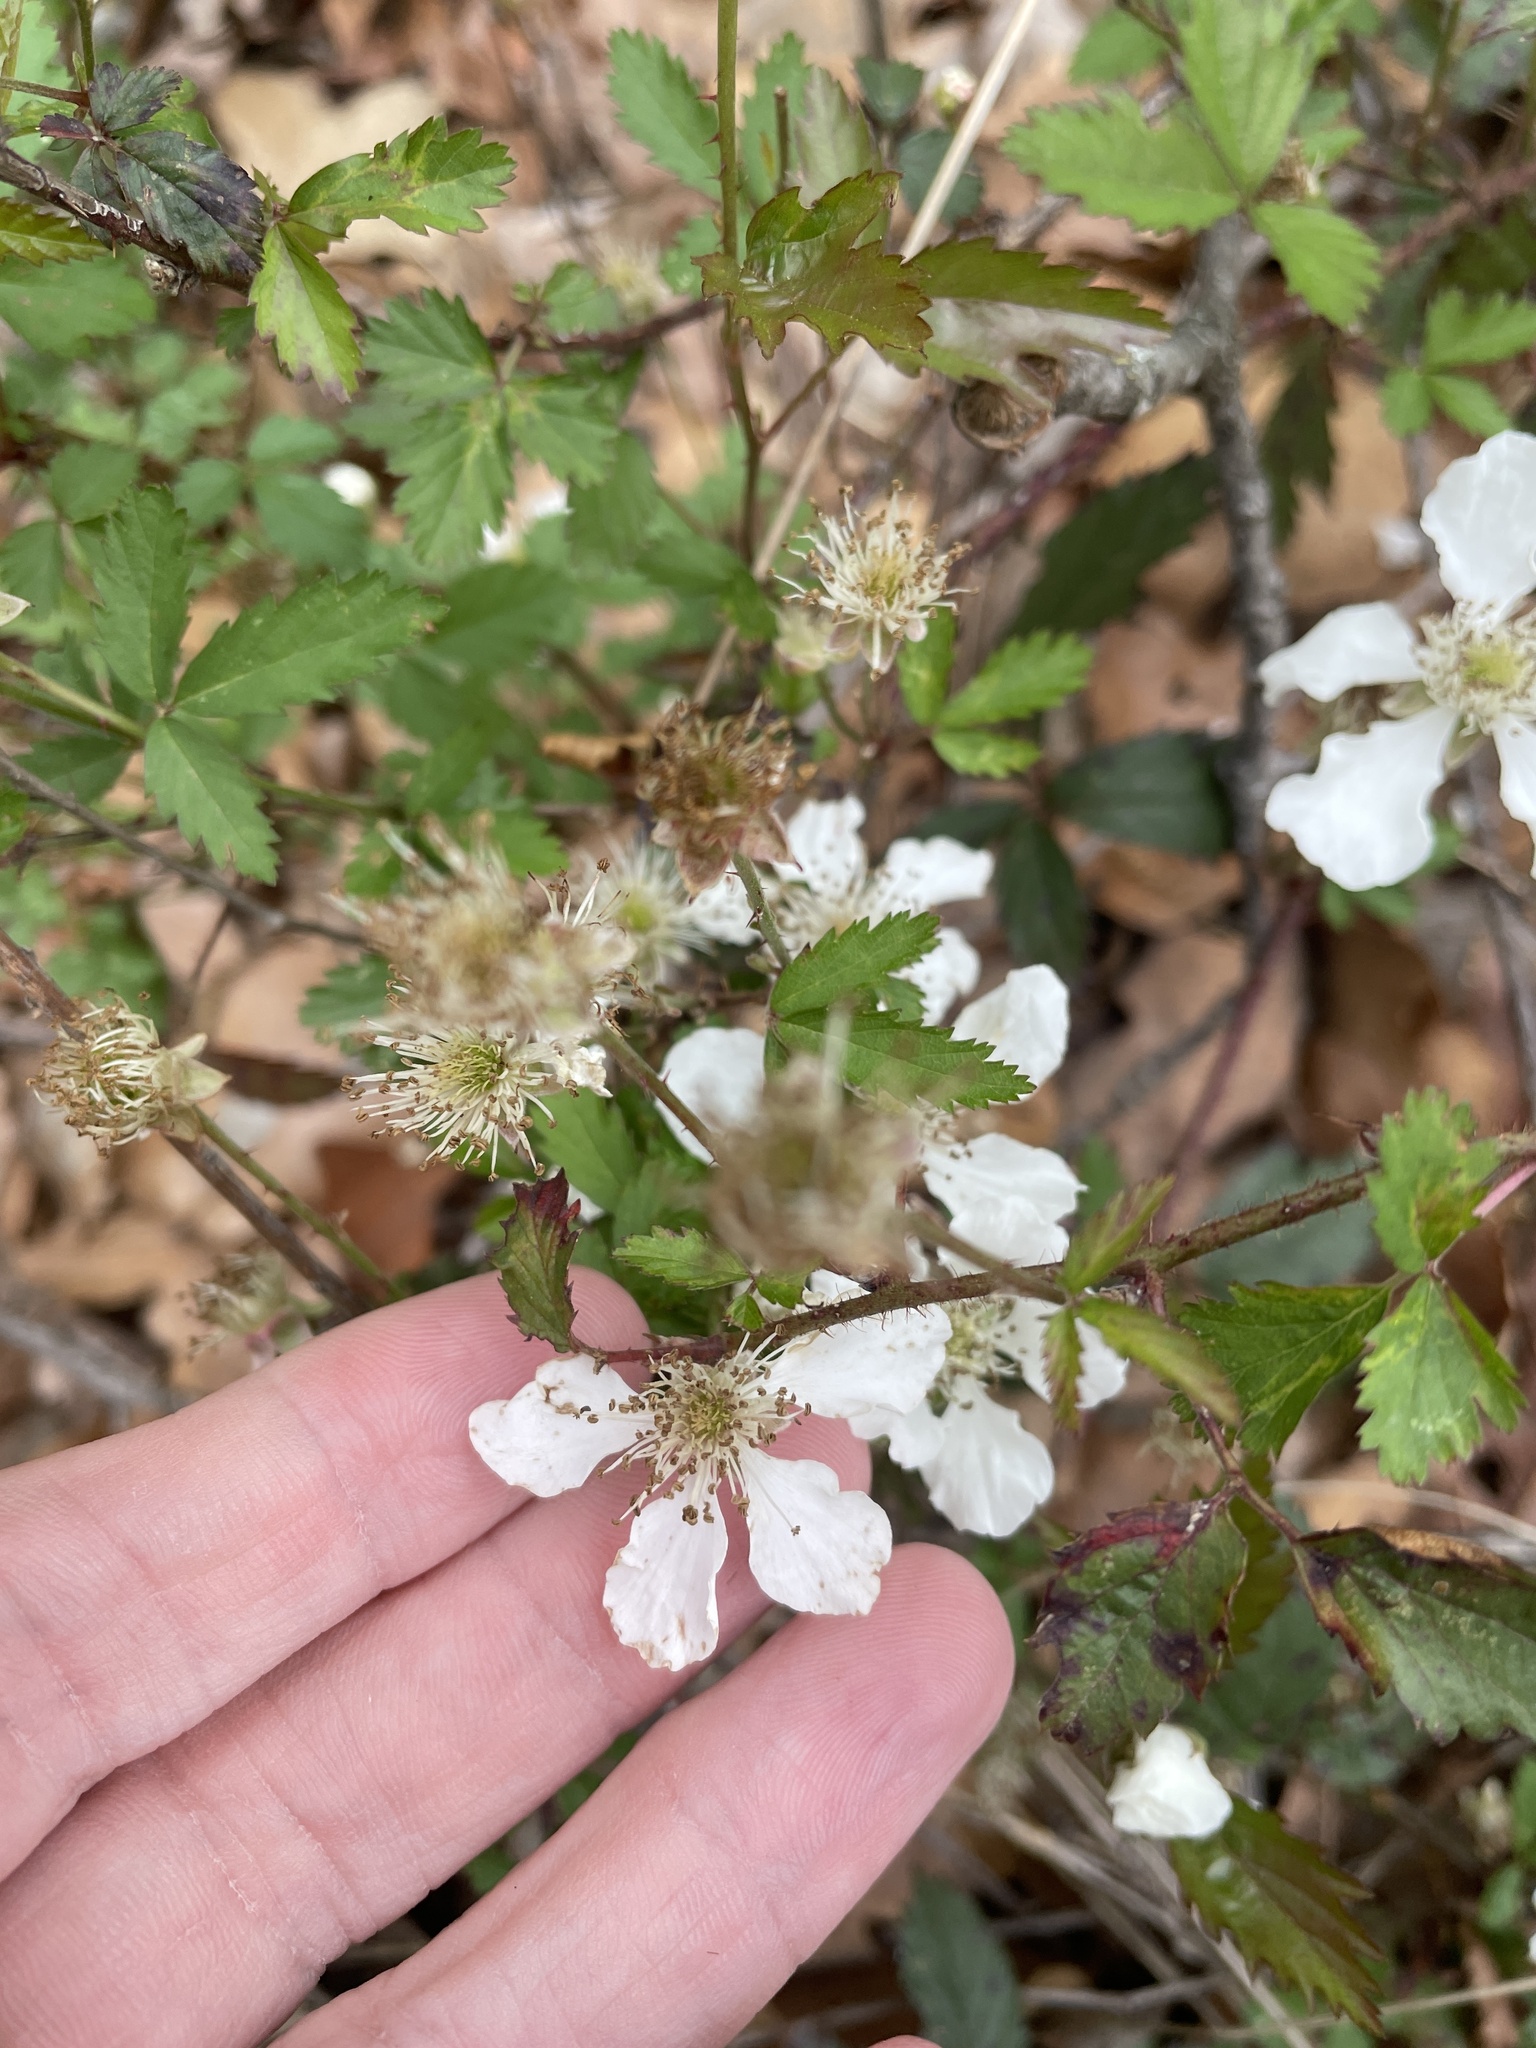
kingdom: Plantae
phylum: Tracheophyta
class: Magnoliopsida
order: Rosales
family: Rosaceae
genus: Rubus
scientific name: Rubus trivialis
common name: Southern dewberry
